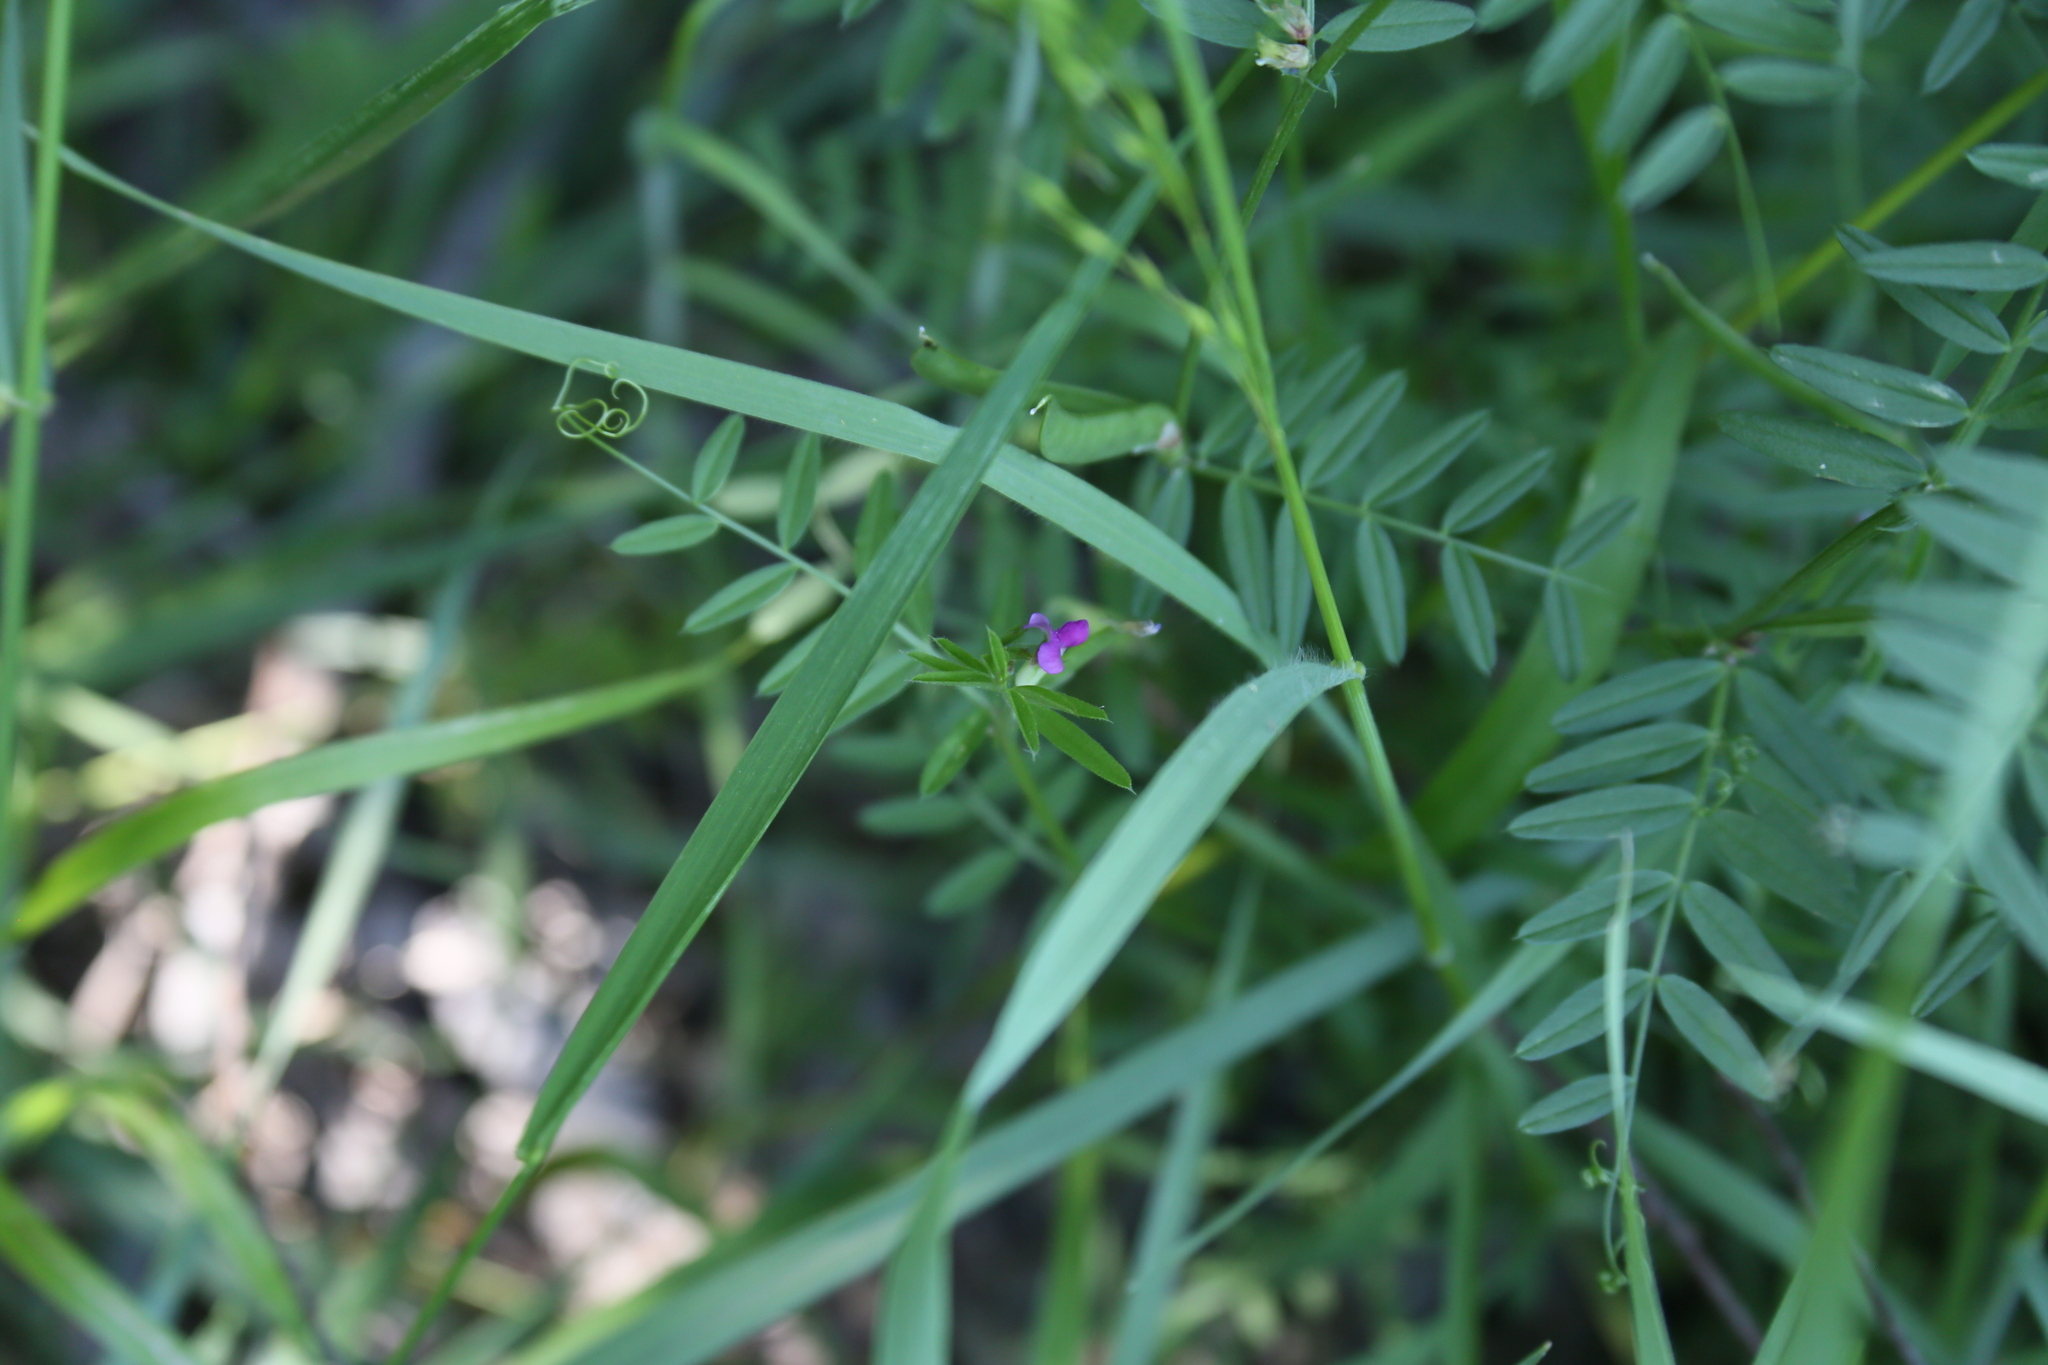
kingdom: Plantae
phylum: Tracheophyta
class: Magnoliopsida
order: Fabales
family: Fabaceae
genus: Vicia
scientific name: Vicia sativa
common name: Garden vetch
